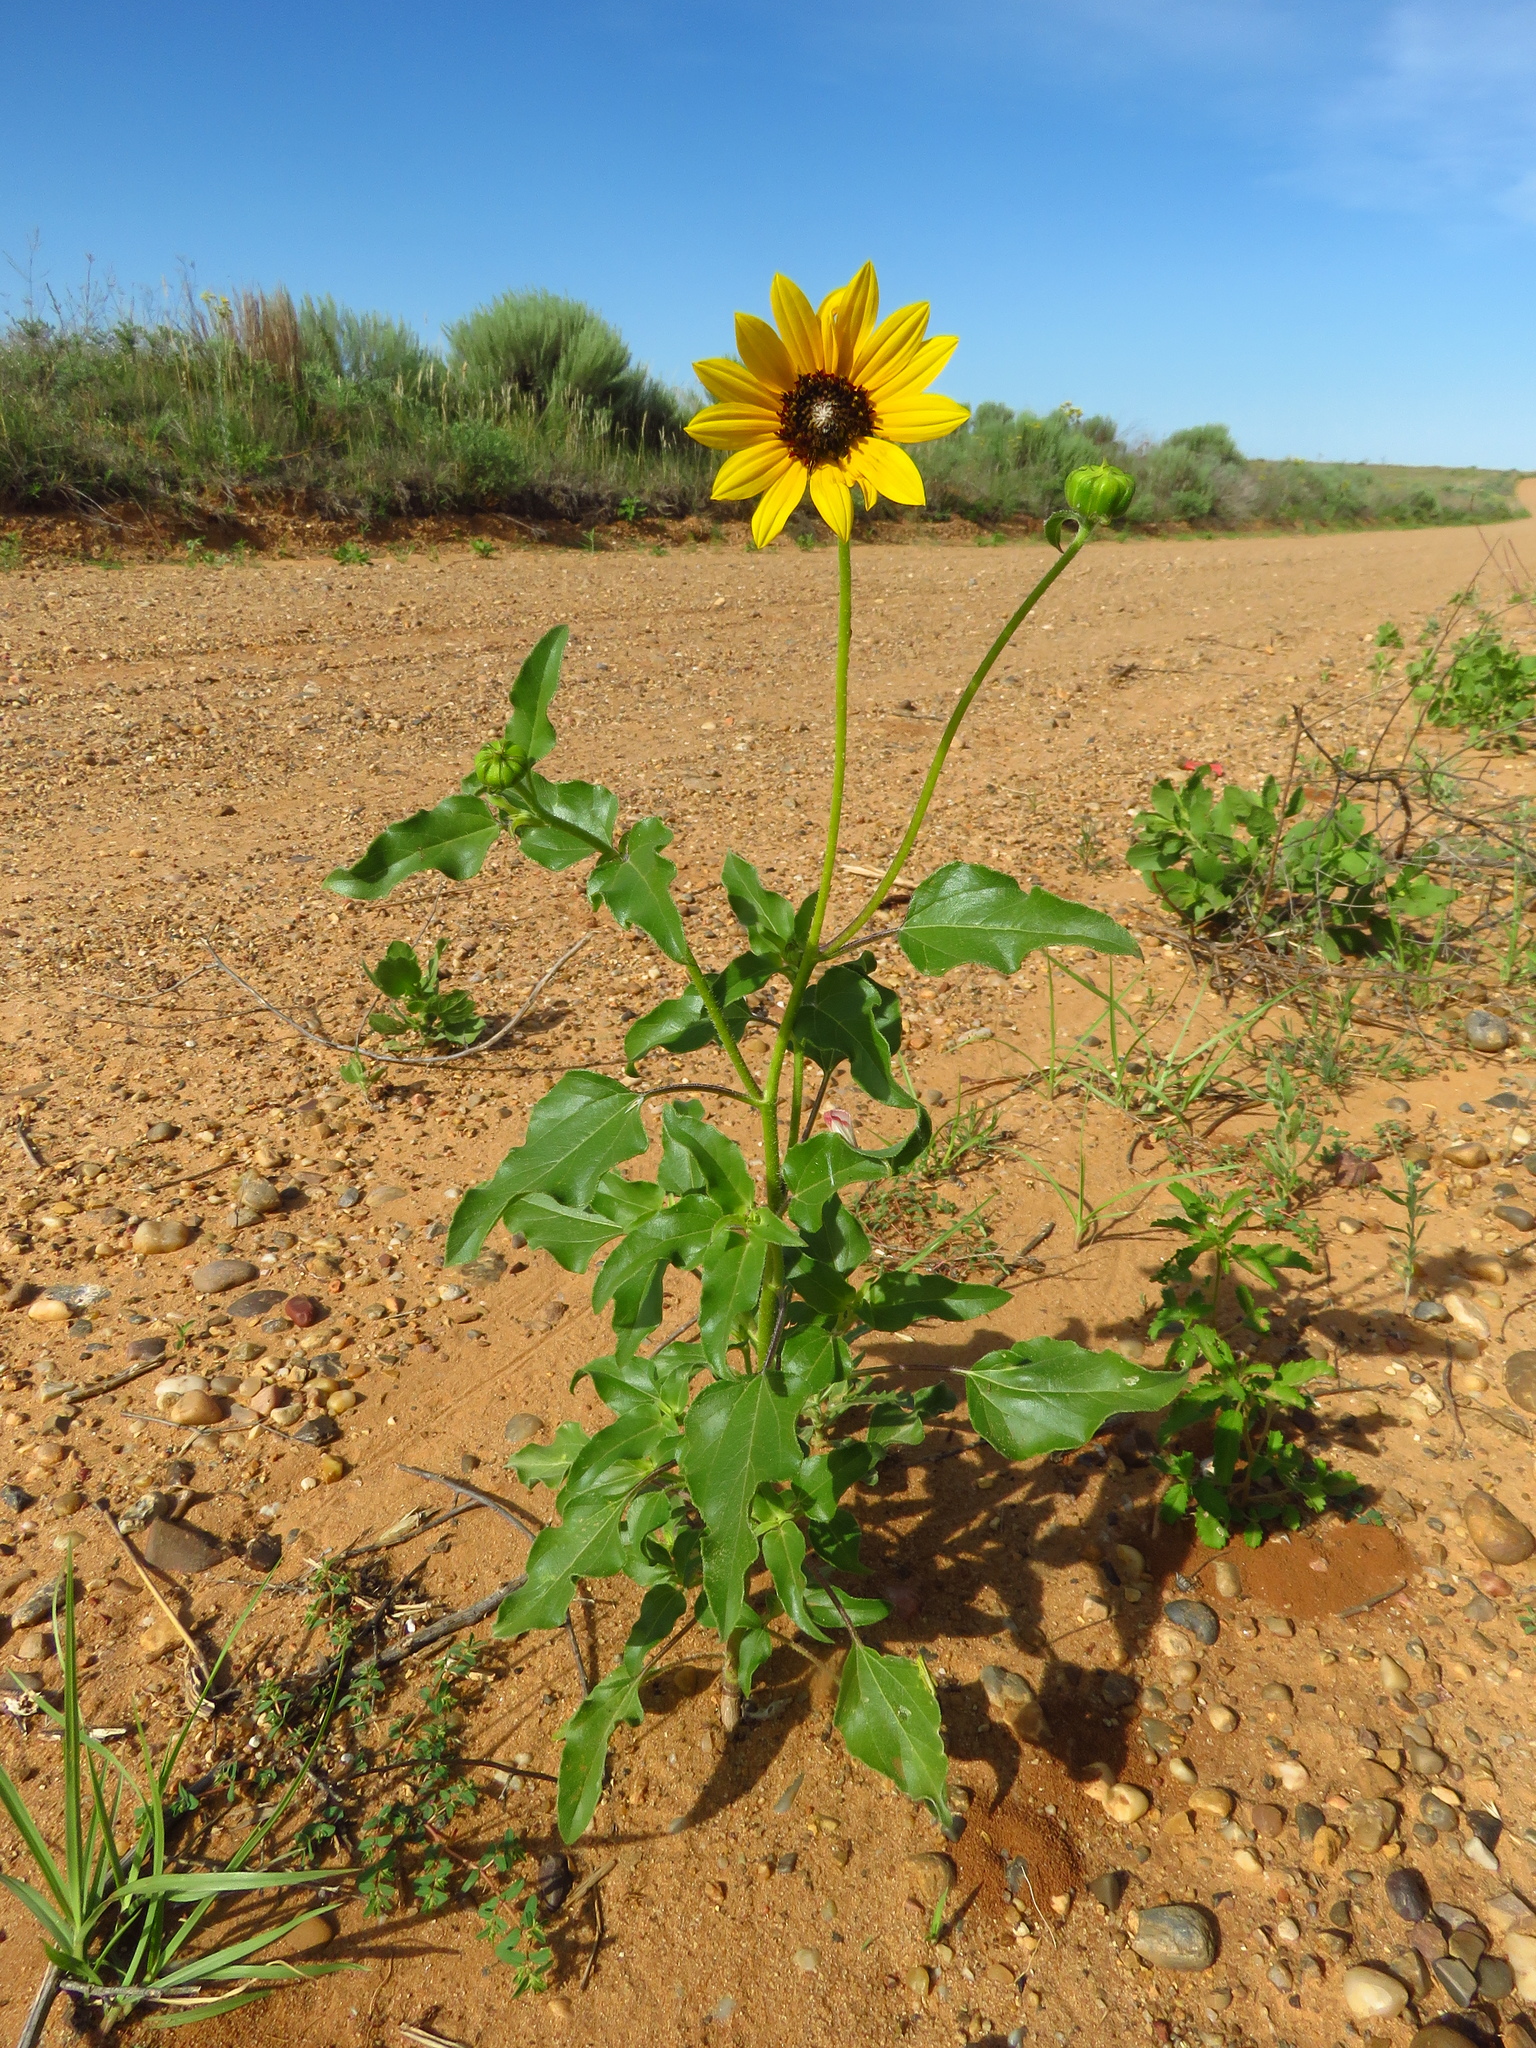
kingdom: Plantae
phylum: Tracheophyta
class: Magnoliopsida
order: Asterales
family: Asteraceae
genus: Helianthus
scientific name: Helianthus petiolaris
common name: Lesser sunflower
